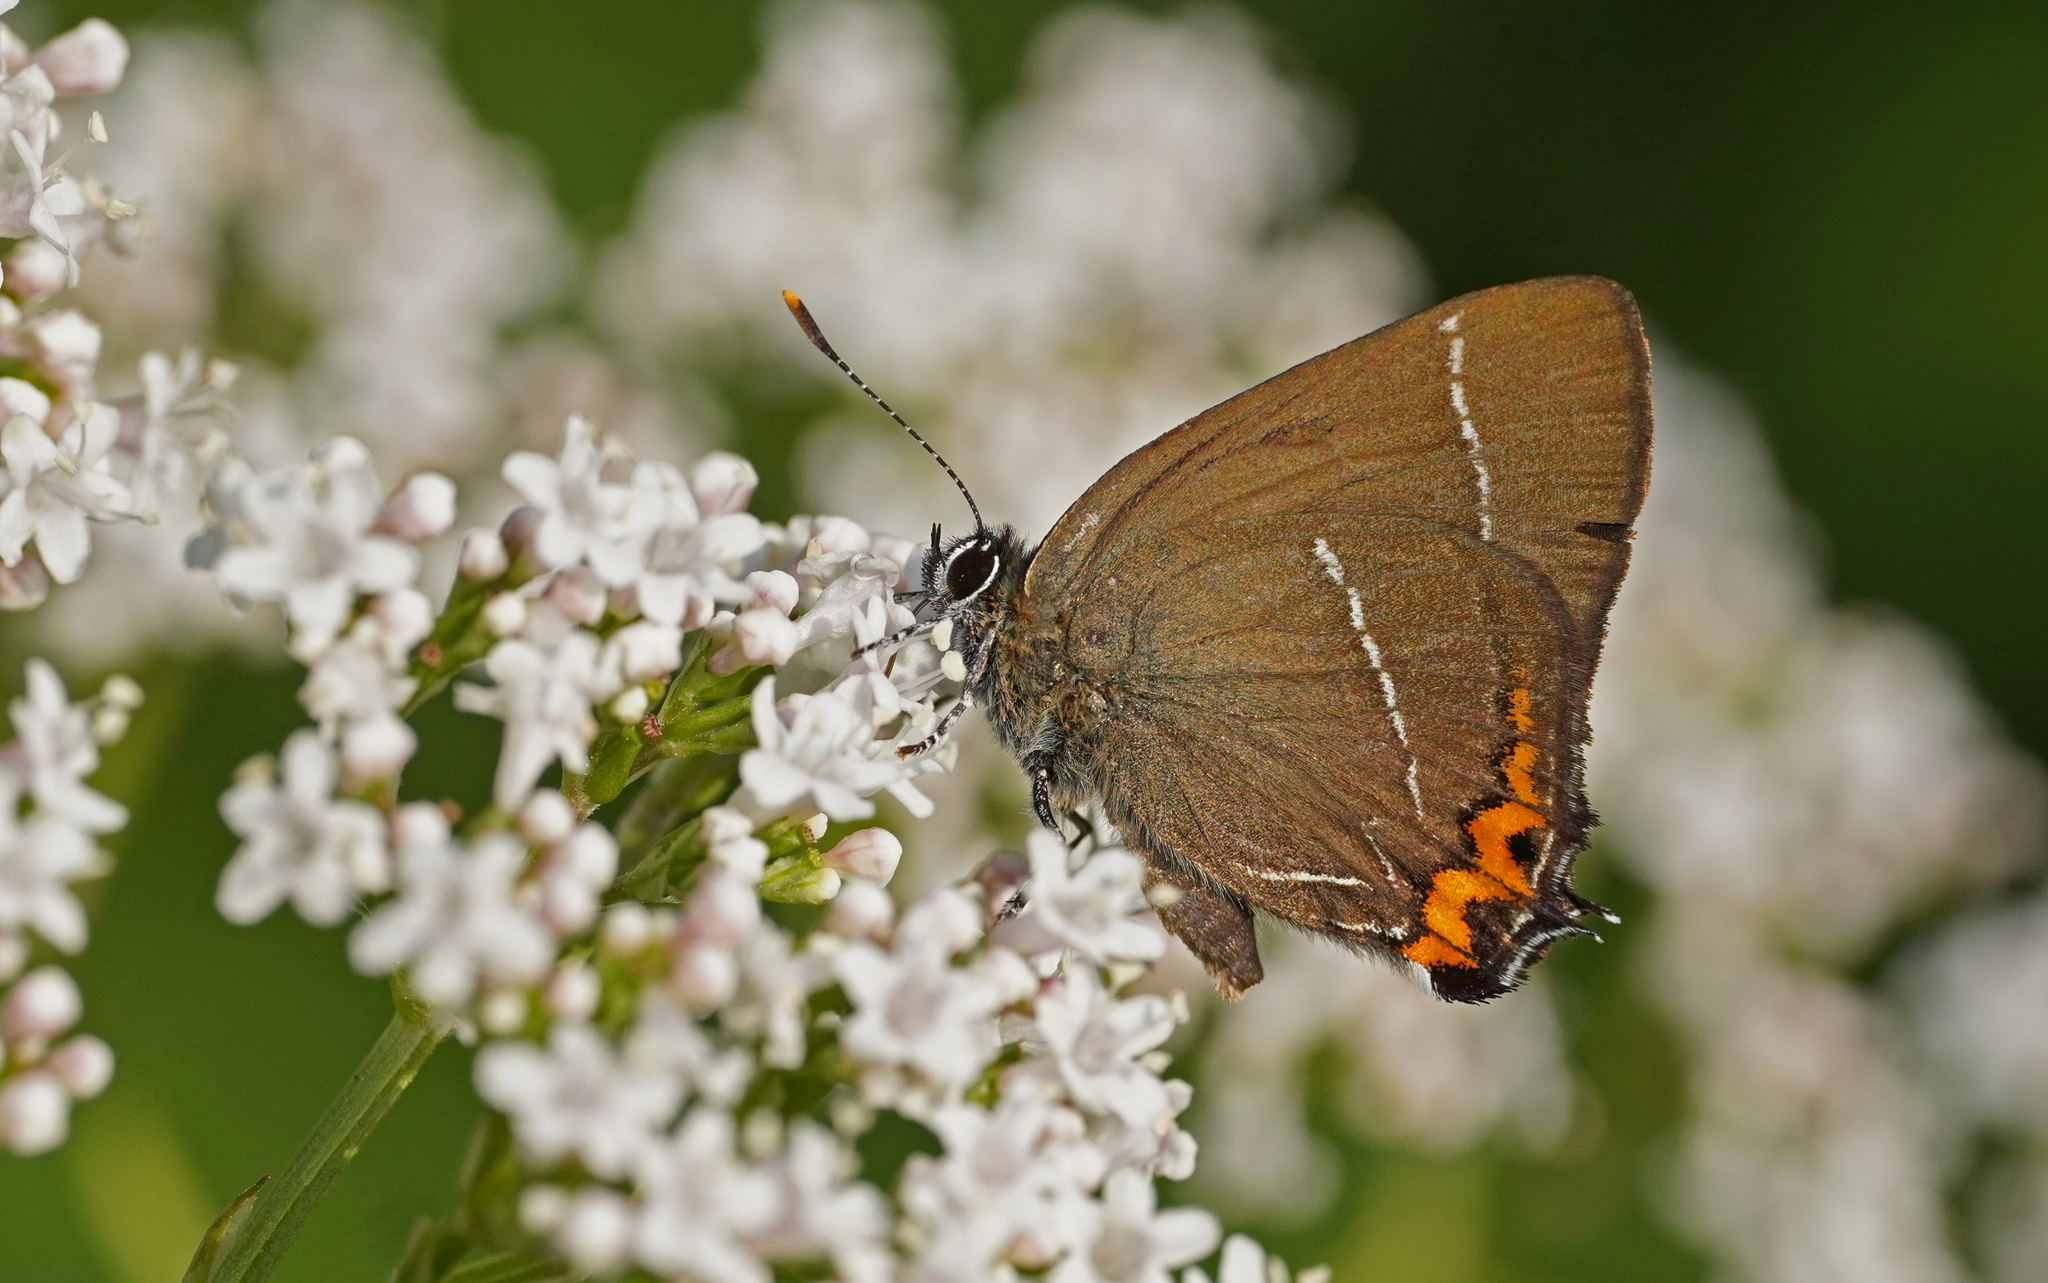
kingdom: Animalia
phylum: Arthropoda
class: Insecta
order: Lepidoptera
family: Lycaenidae
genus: Satyrium
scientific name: Satyrium w-album
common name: White-letter hairstreak
